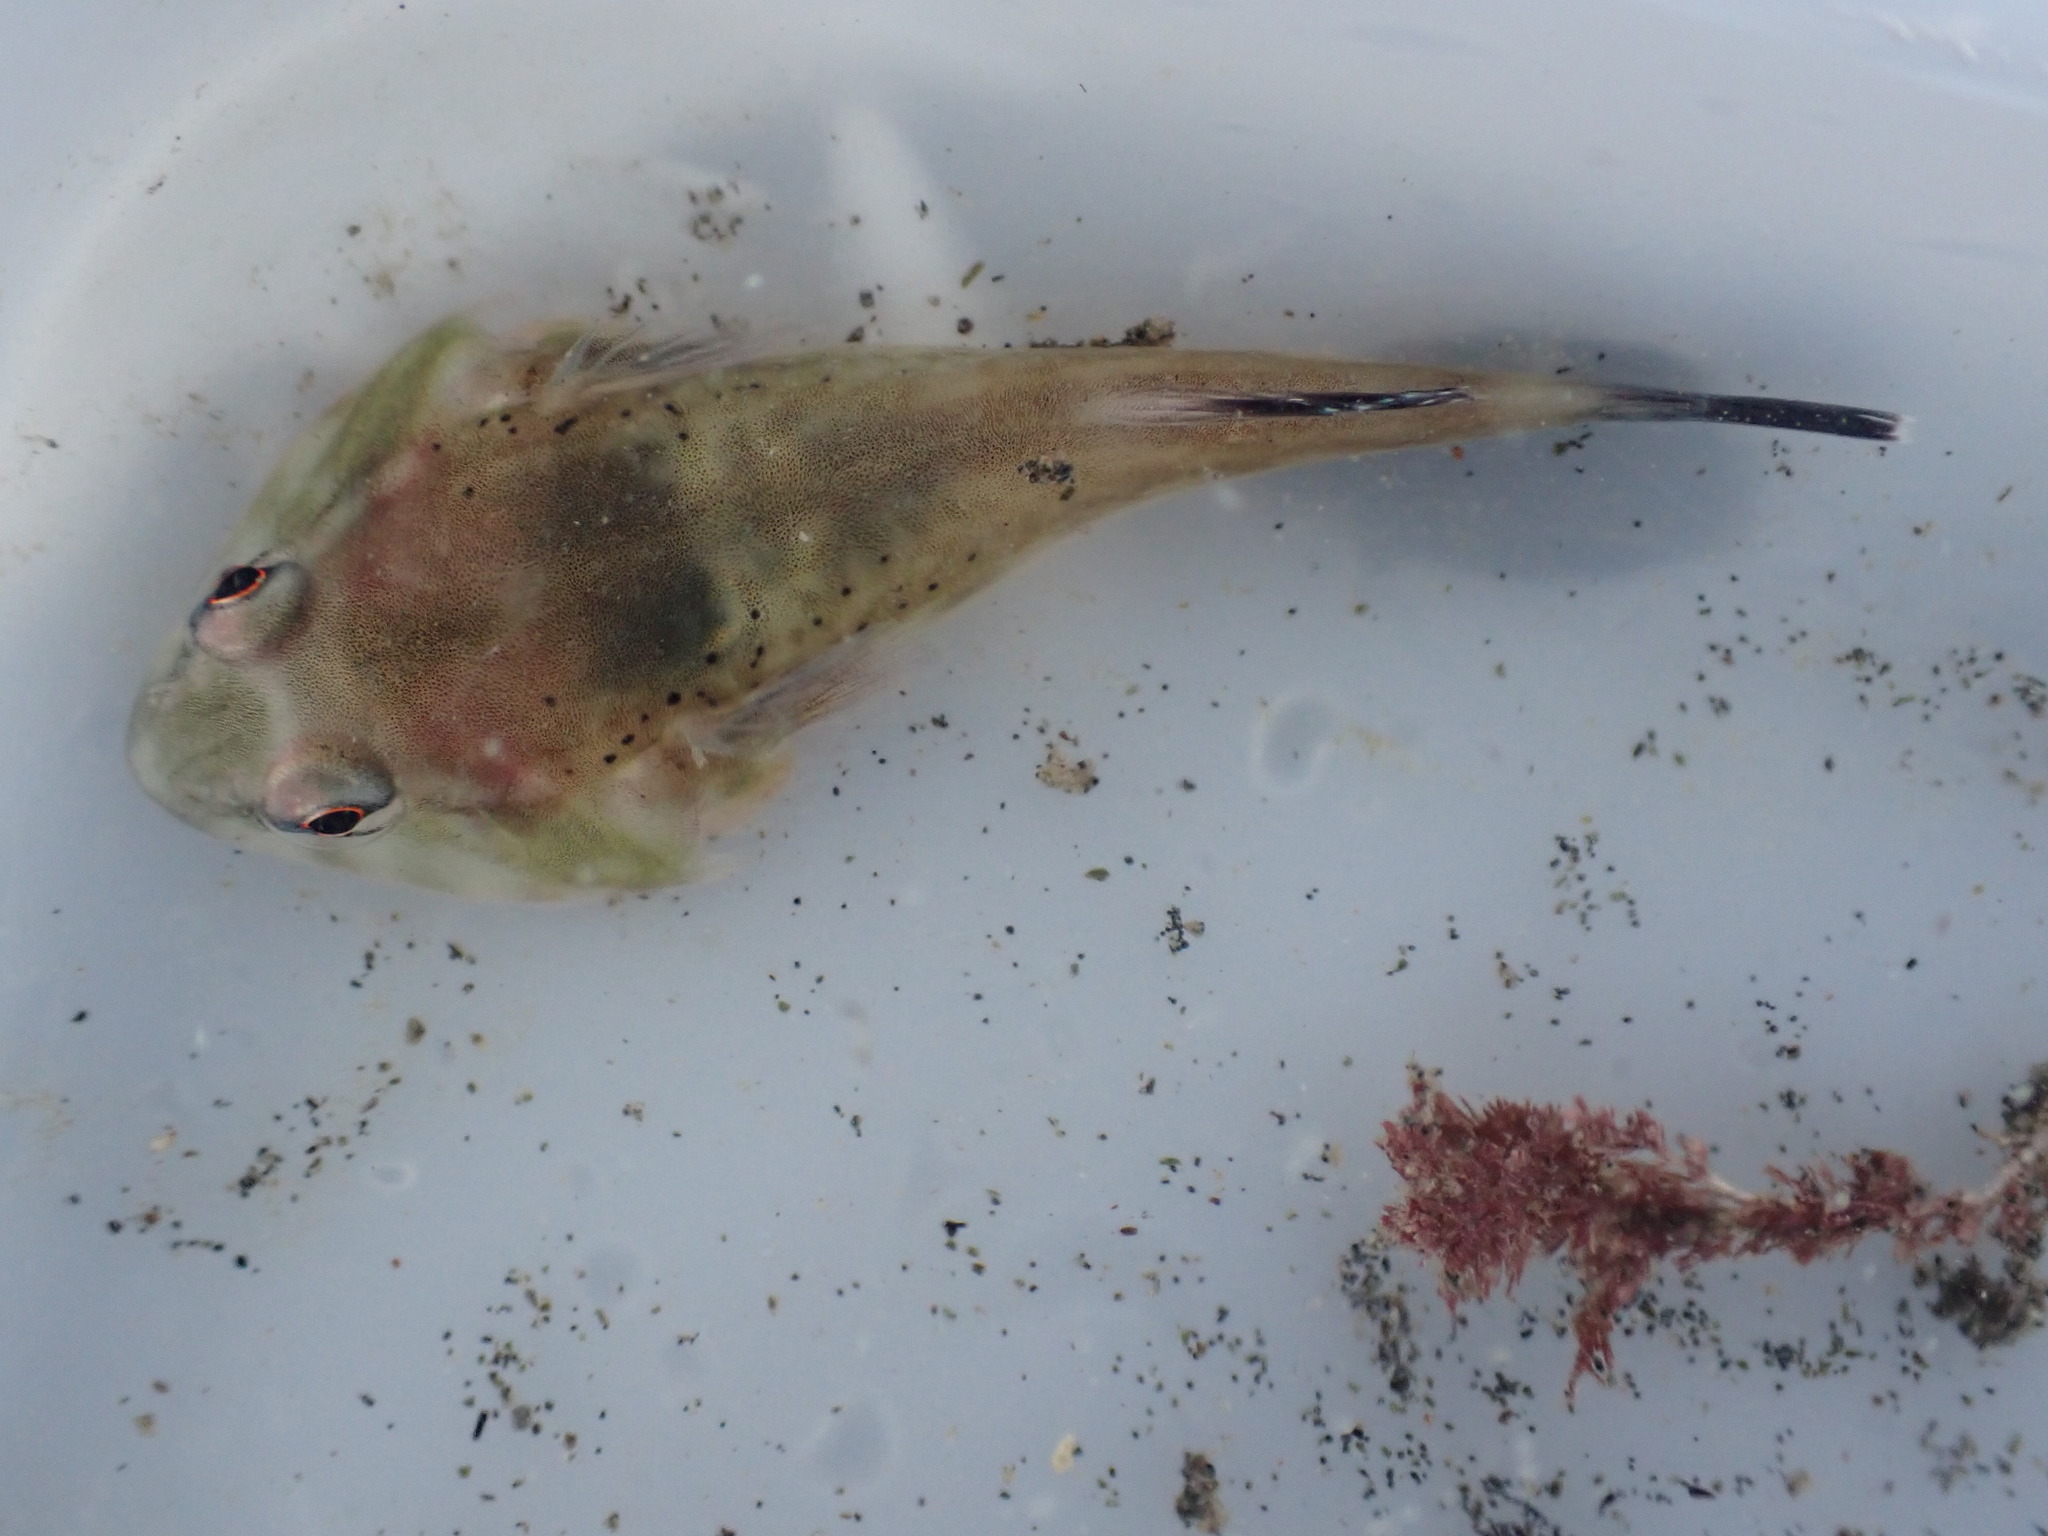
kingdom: Animalia
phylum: Chordata
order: Gobiesociformes
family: Gobiesocidae
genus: Diplocrepis
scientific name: Diplocrepis puniceus
